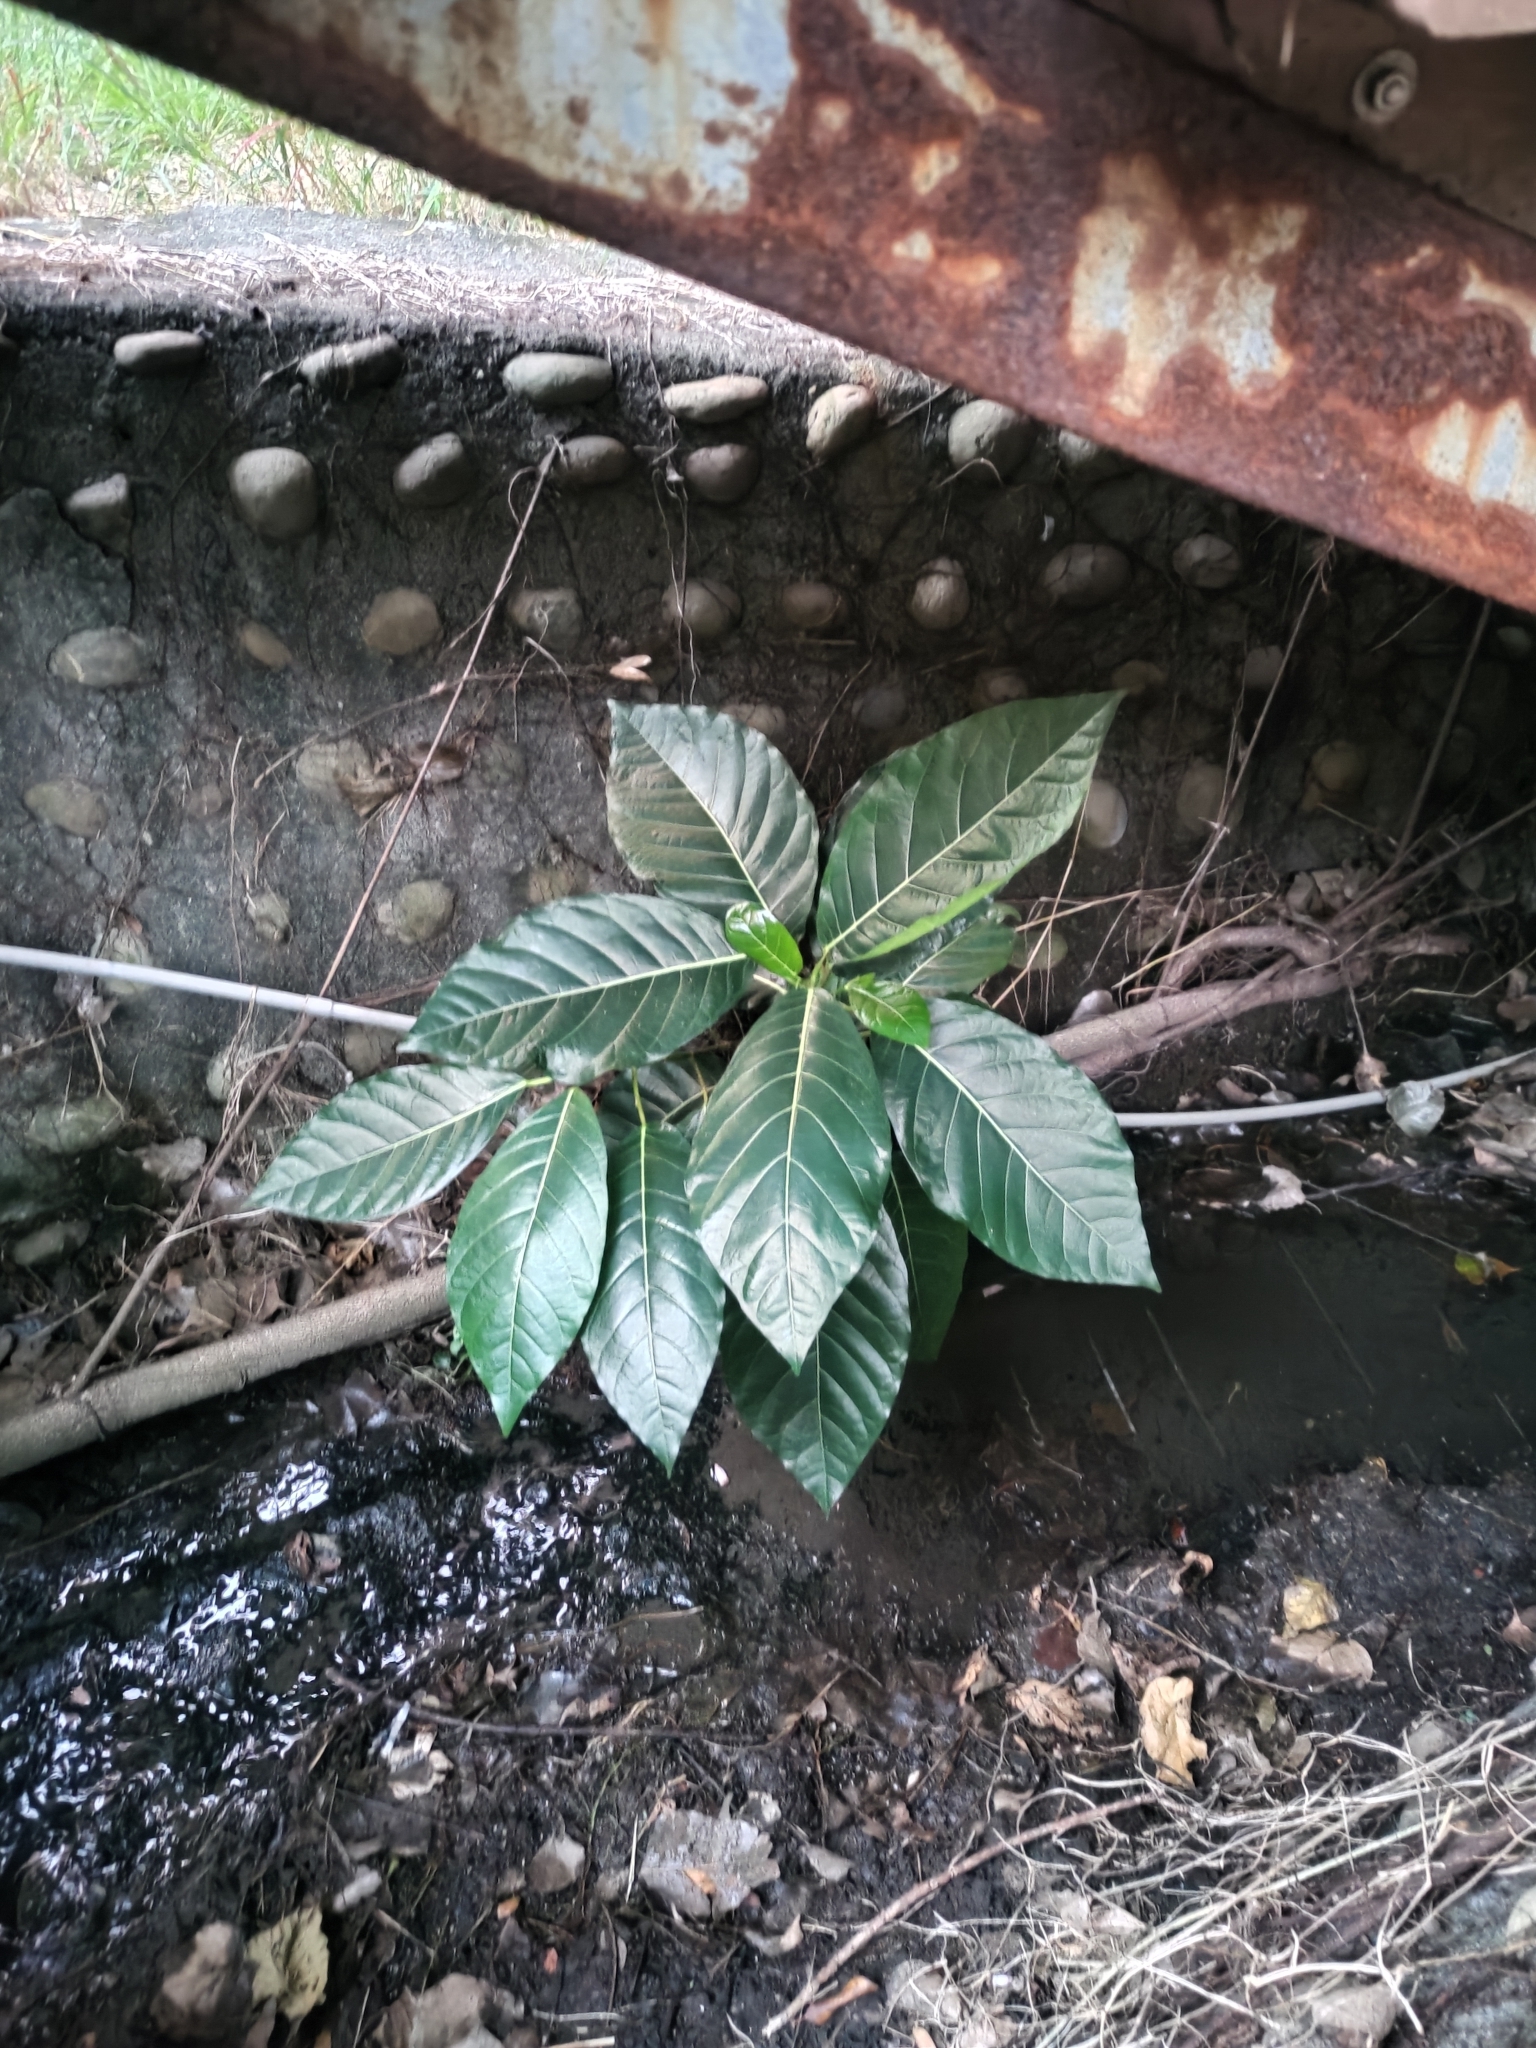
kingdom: Plantae
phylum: Tracheophyta
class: Magnoliopsida
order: Rosales
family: Moraceae
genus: Ficus
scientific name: Ficus septica
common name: Septic fig
